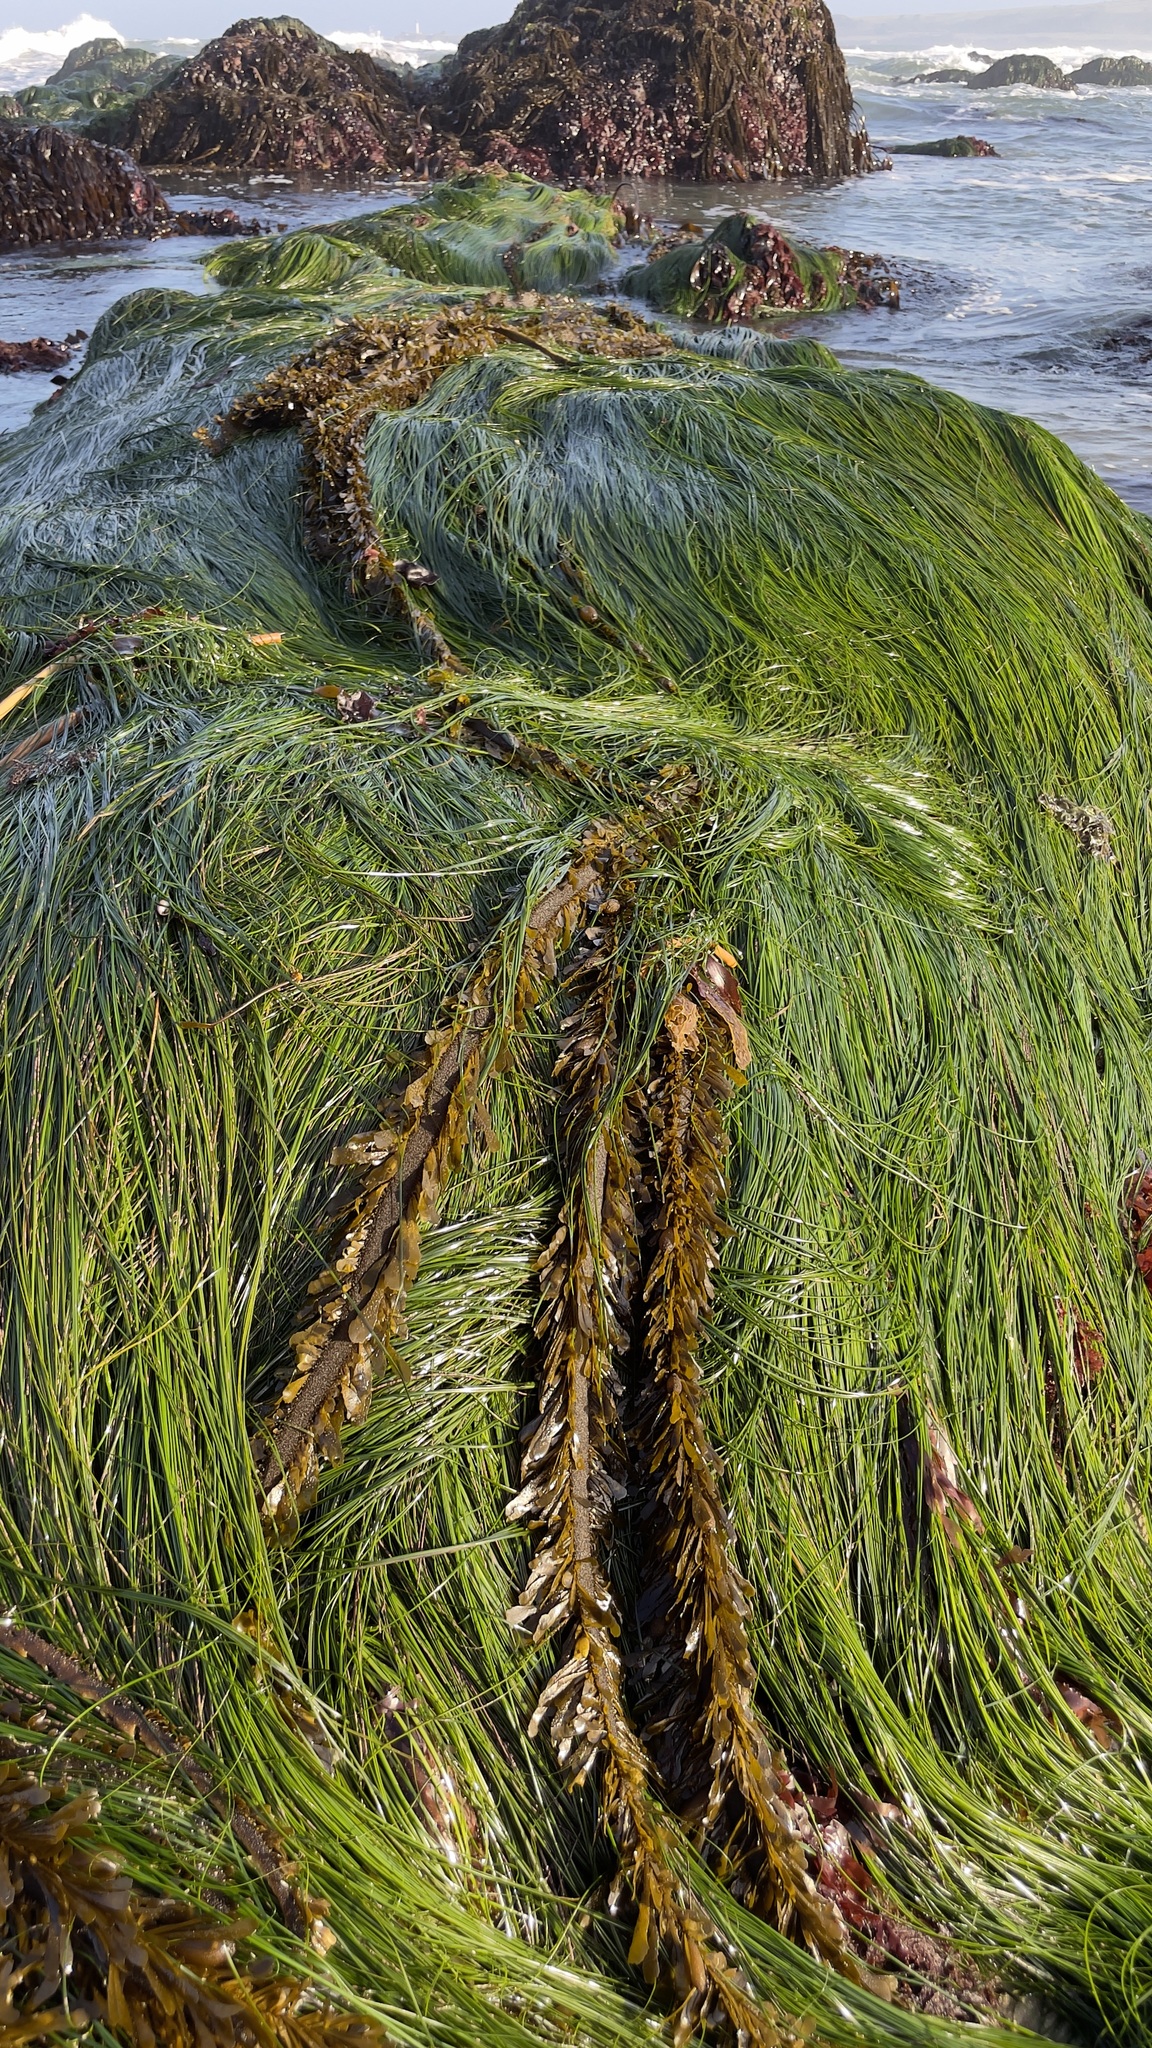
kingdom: Plantae
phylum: Tracheophyta
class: Liliopsida
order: Alismatales
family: Zosteraceae
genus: Phyllospadix
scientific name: Phyllospadix torreyi
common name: Surfgrass
